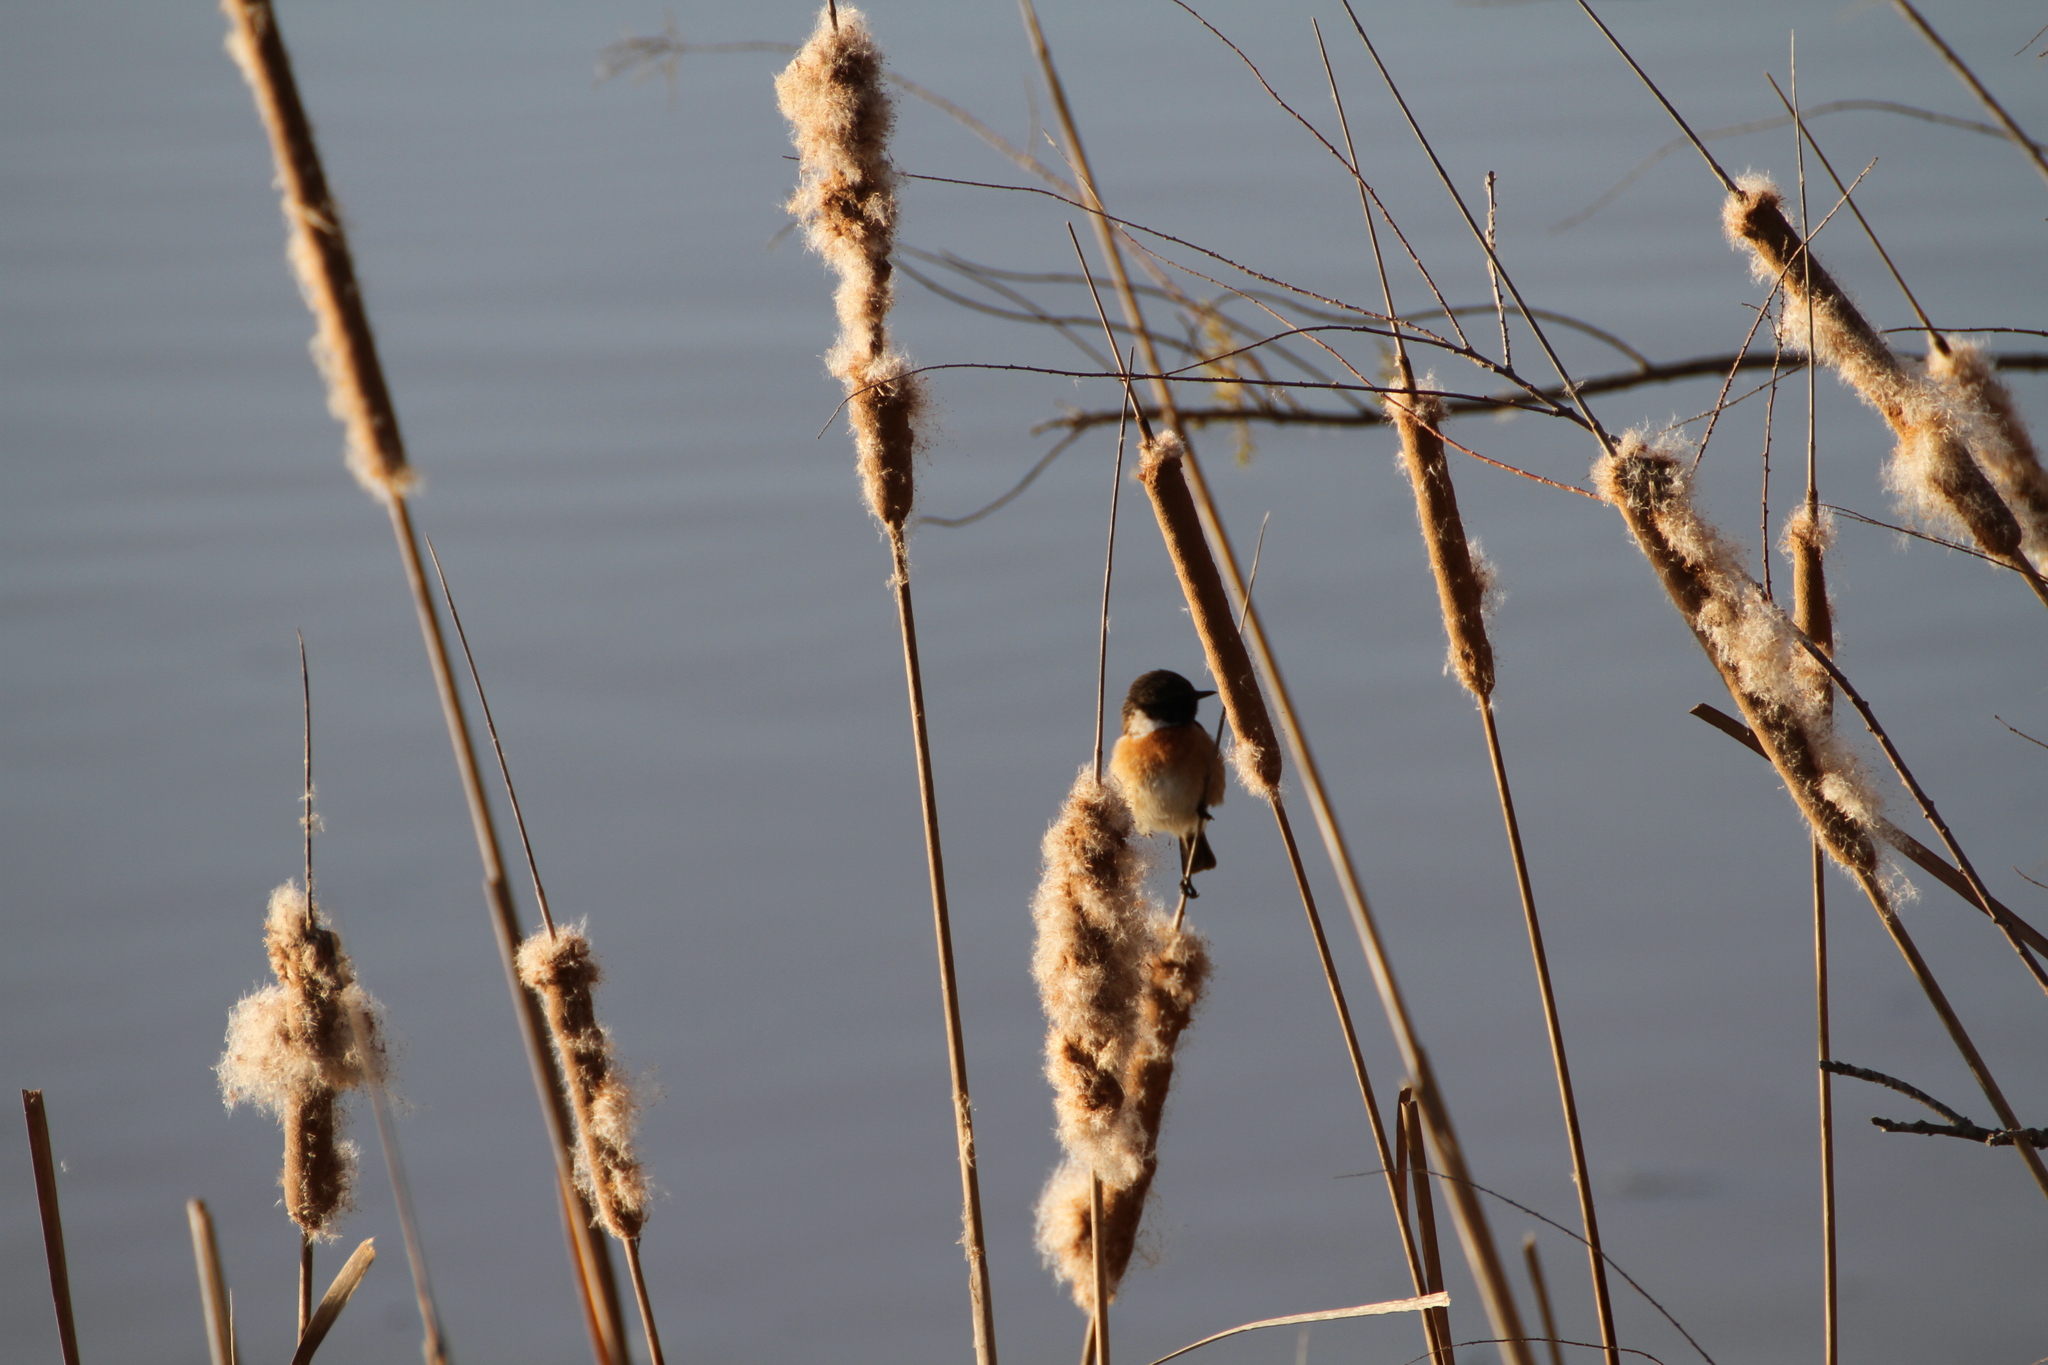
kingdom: Animalia
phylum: Chordata
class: Aves
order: Passeriformes
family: Muscicapidae
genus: Saxicola
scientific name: Saxicola rubicola
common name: European stonechat
